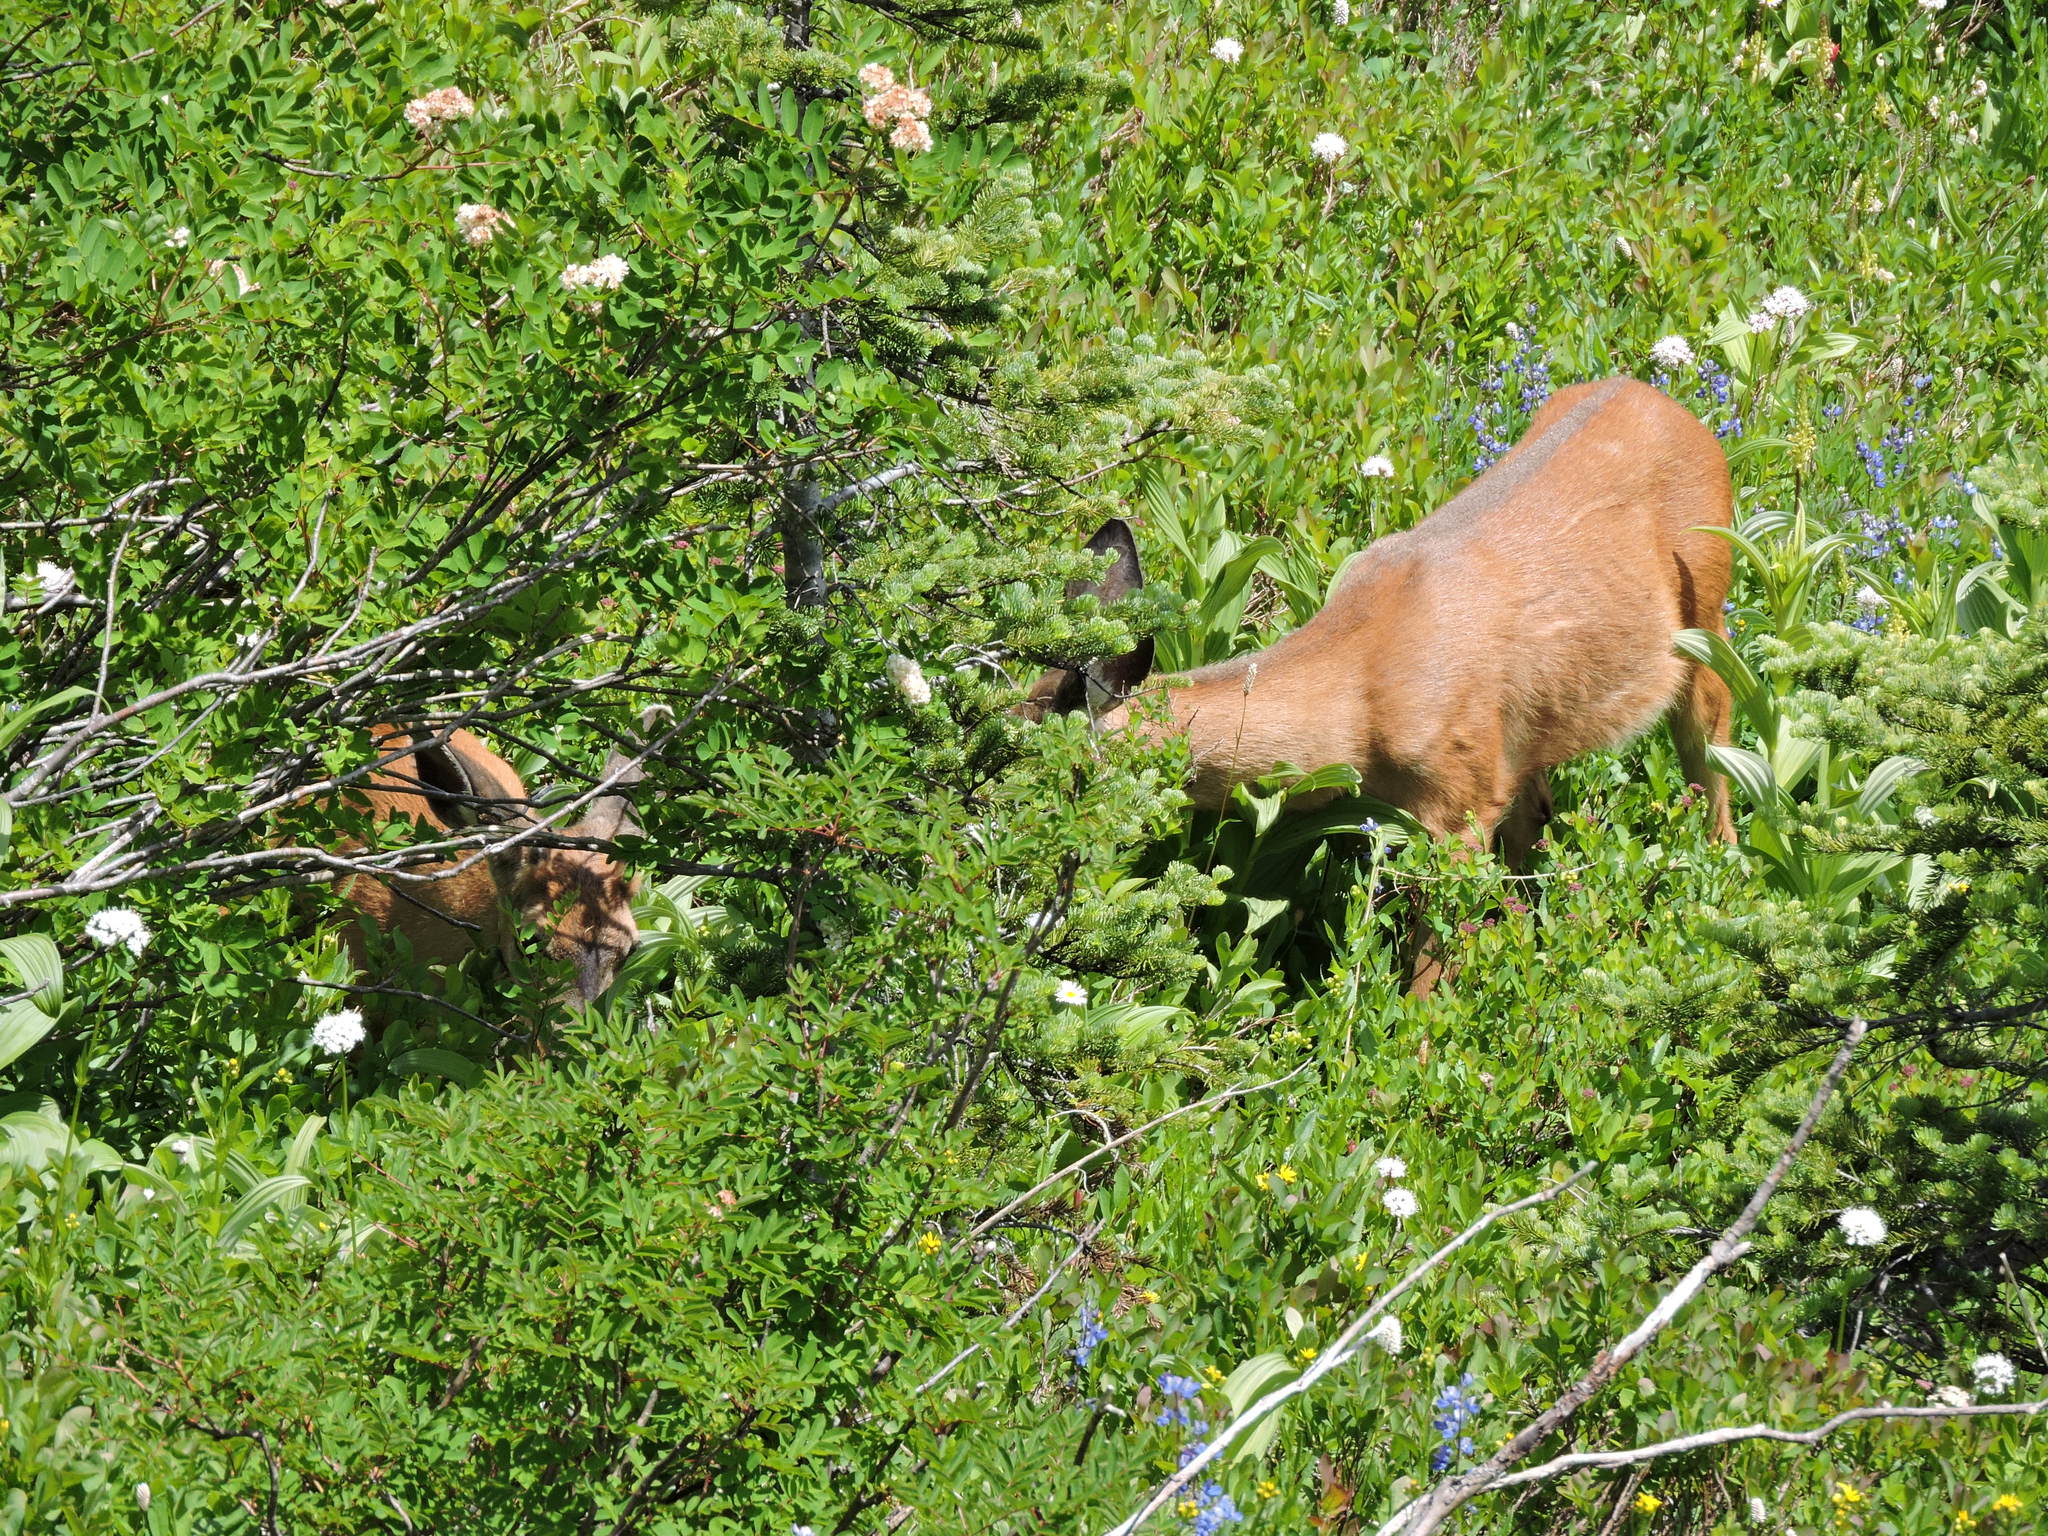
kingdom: Animalia
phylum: Chordata
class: Mammalia
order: Artiodactyla
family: Cervidae
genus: Odocoileus
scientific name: Odocoileus hemionus
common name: Mule deer
